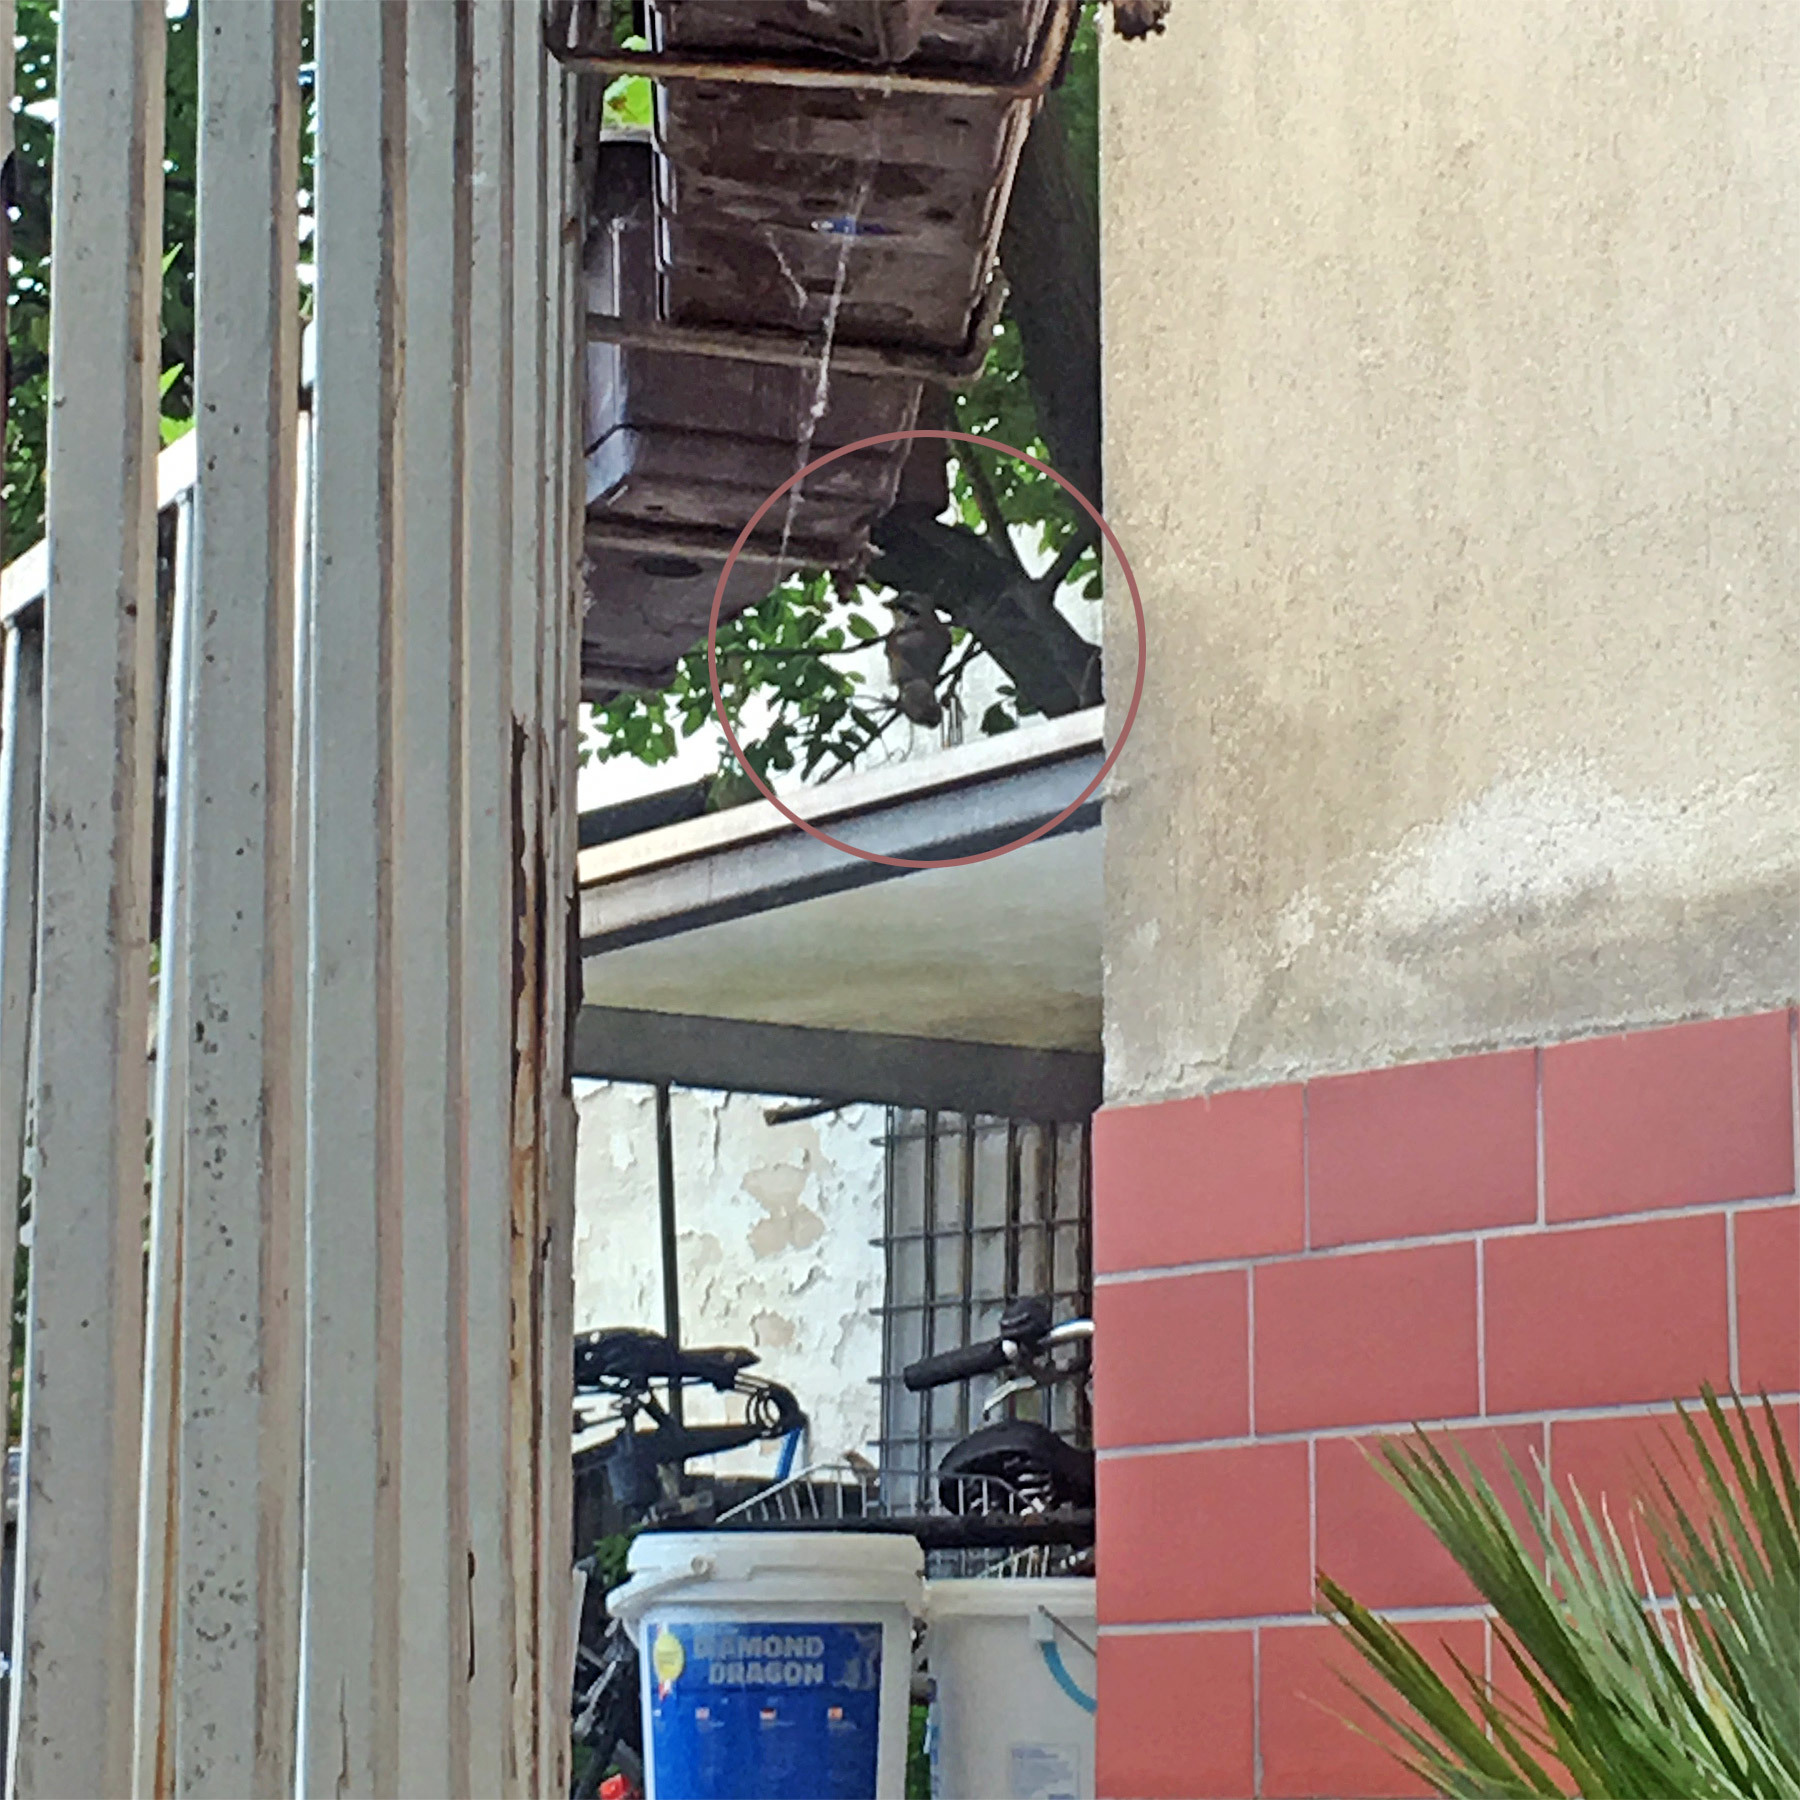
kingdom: Animalia
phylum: Chordata
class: Aves
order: Passeriformes
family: Corvidae
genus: Garrulus
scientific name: Garrulus glandarius
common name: Eurasian jay
